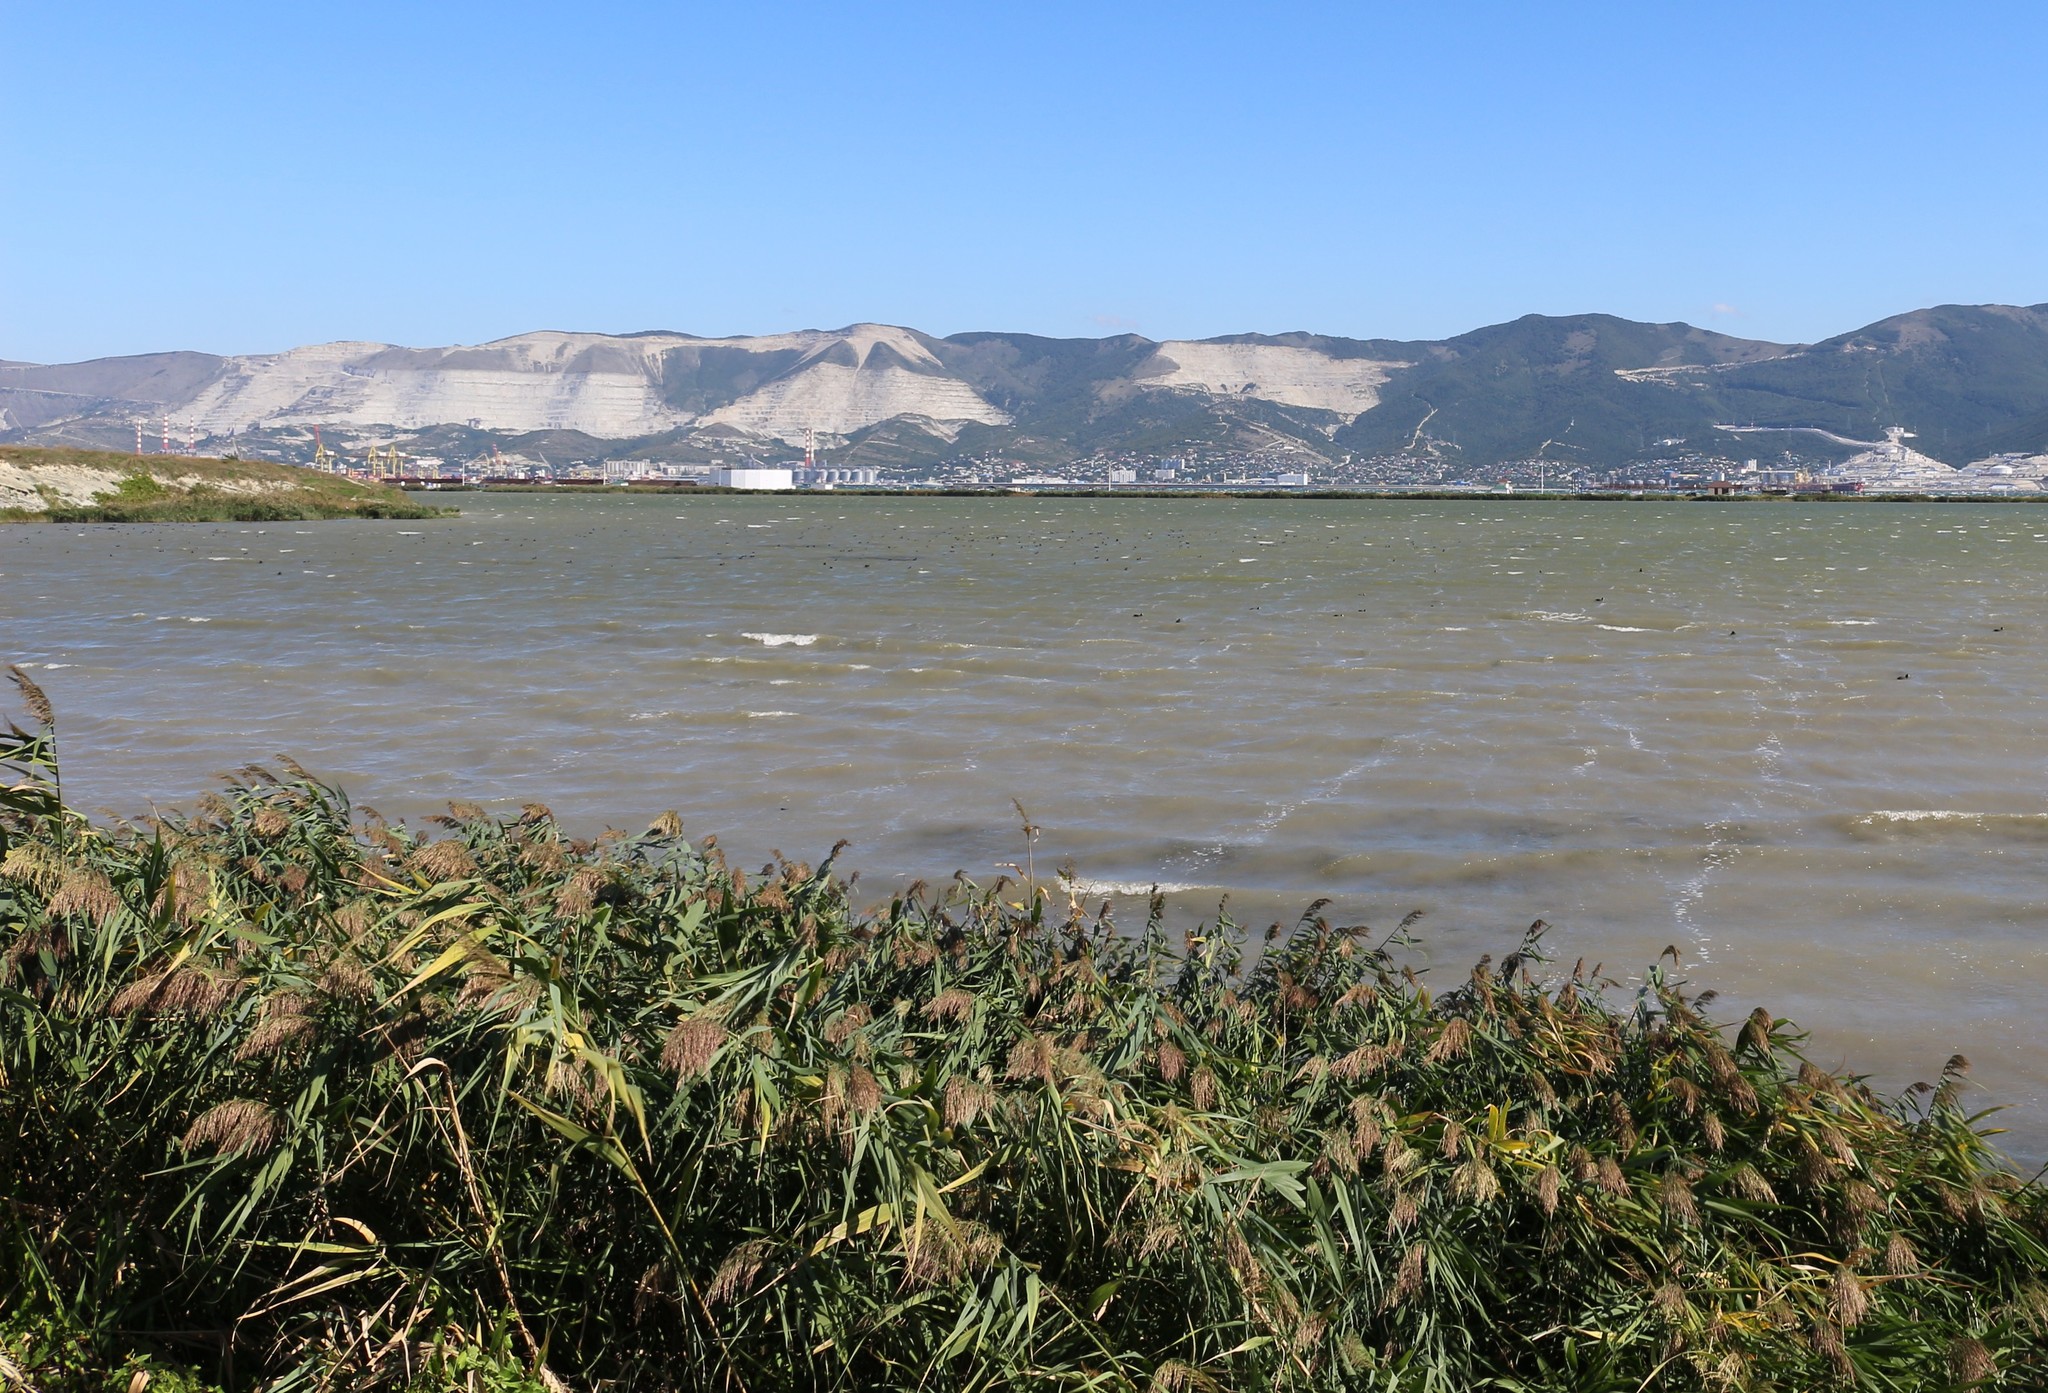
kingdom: Plantae
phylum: Tracheophyta
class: Liliopsida
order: Poales
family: Poaceae
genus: Phragmites
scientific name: Phragmites australis
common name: Common reed
